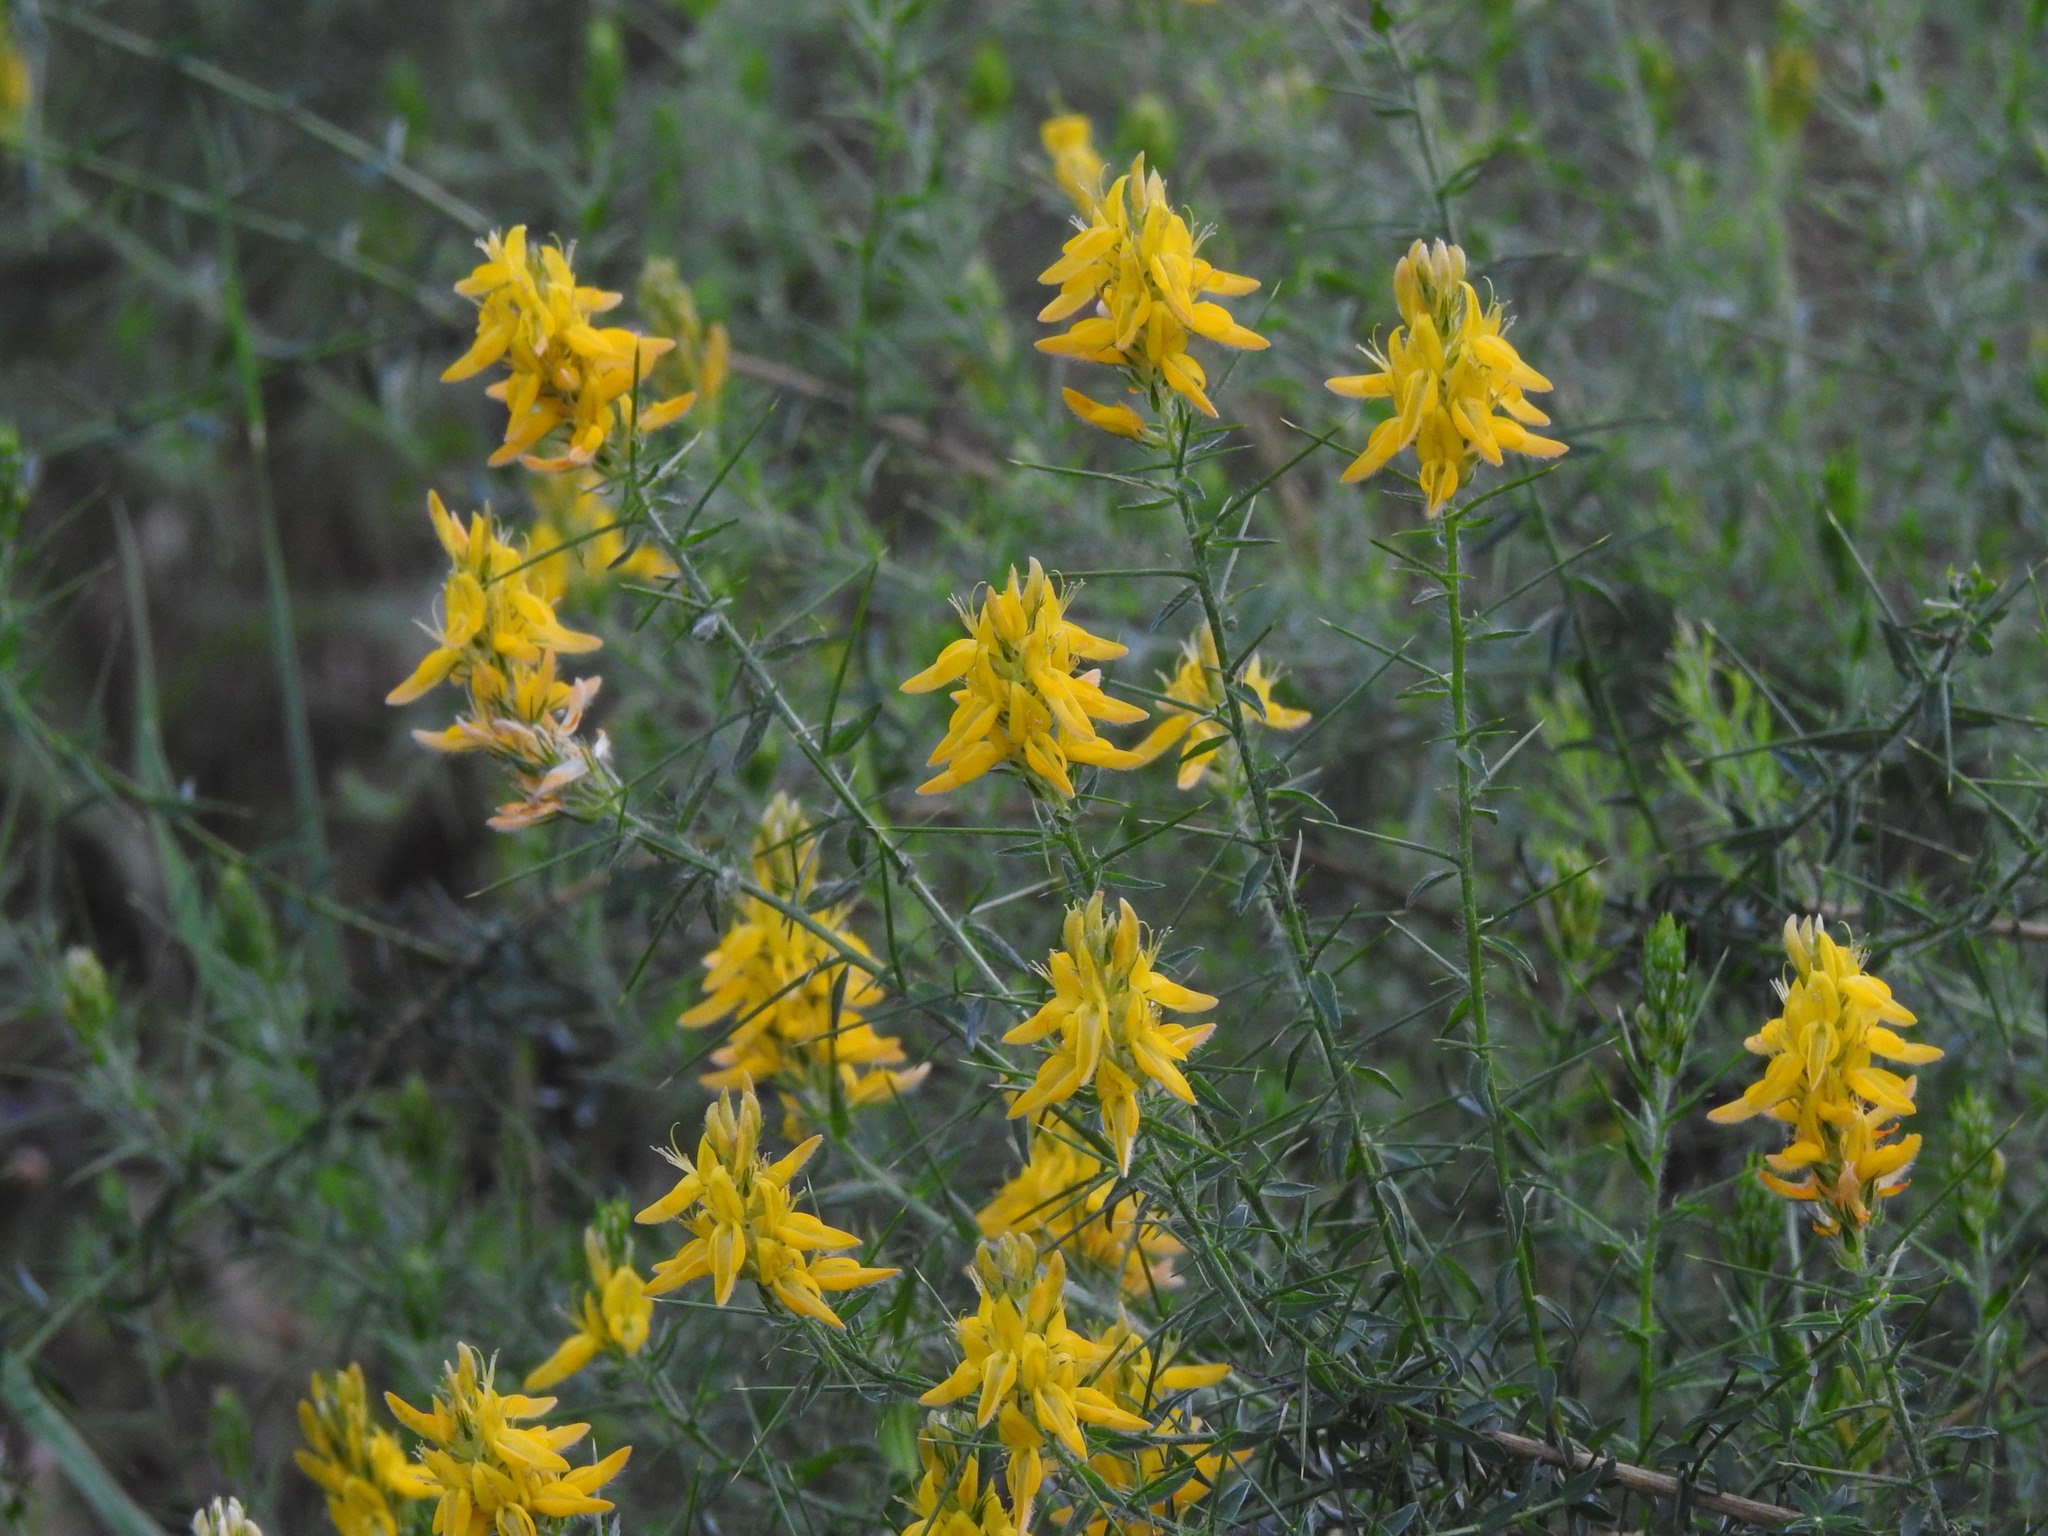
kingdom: Plantae
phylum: Tracheophyta
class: Magnoliopsida
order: Fabales
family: Fabaceae
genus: Genista
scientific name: Genista hirsuta
